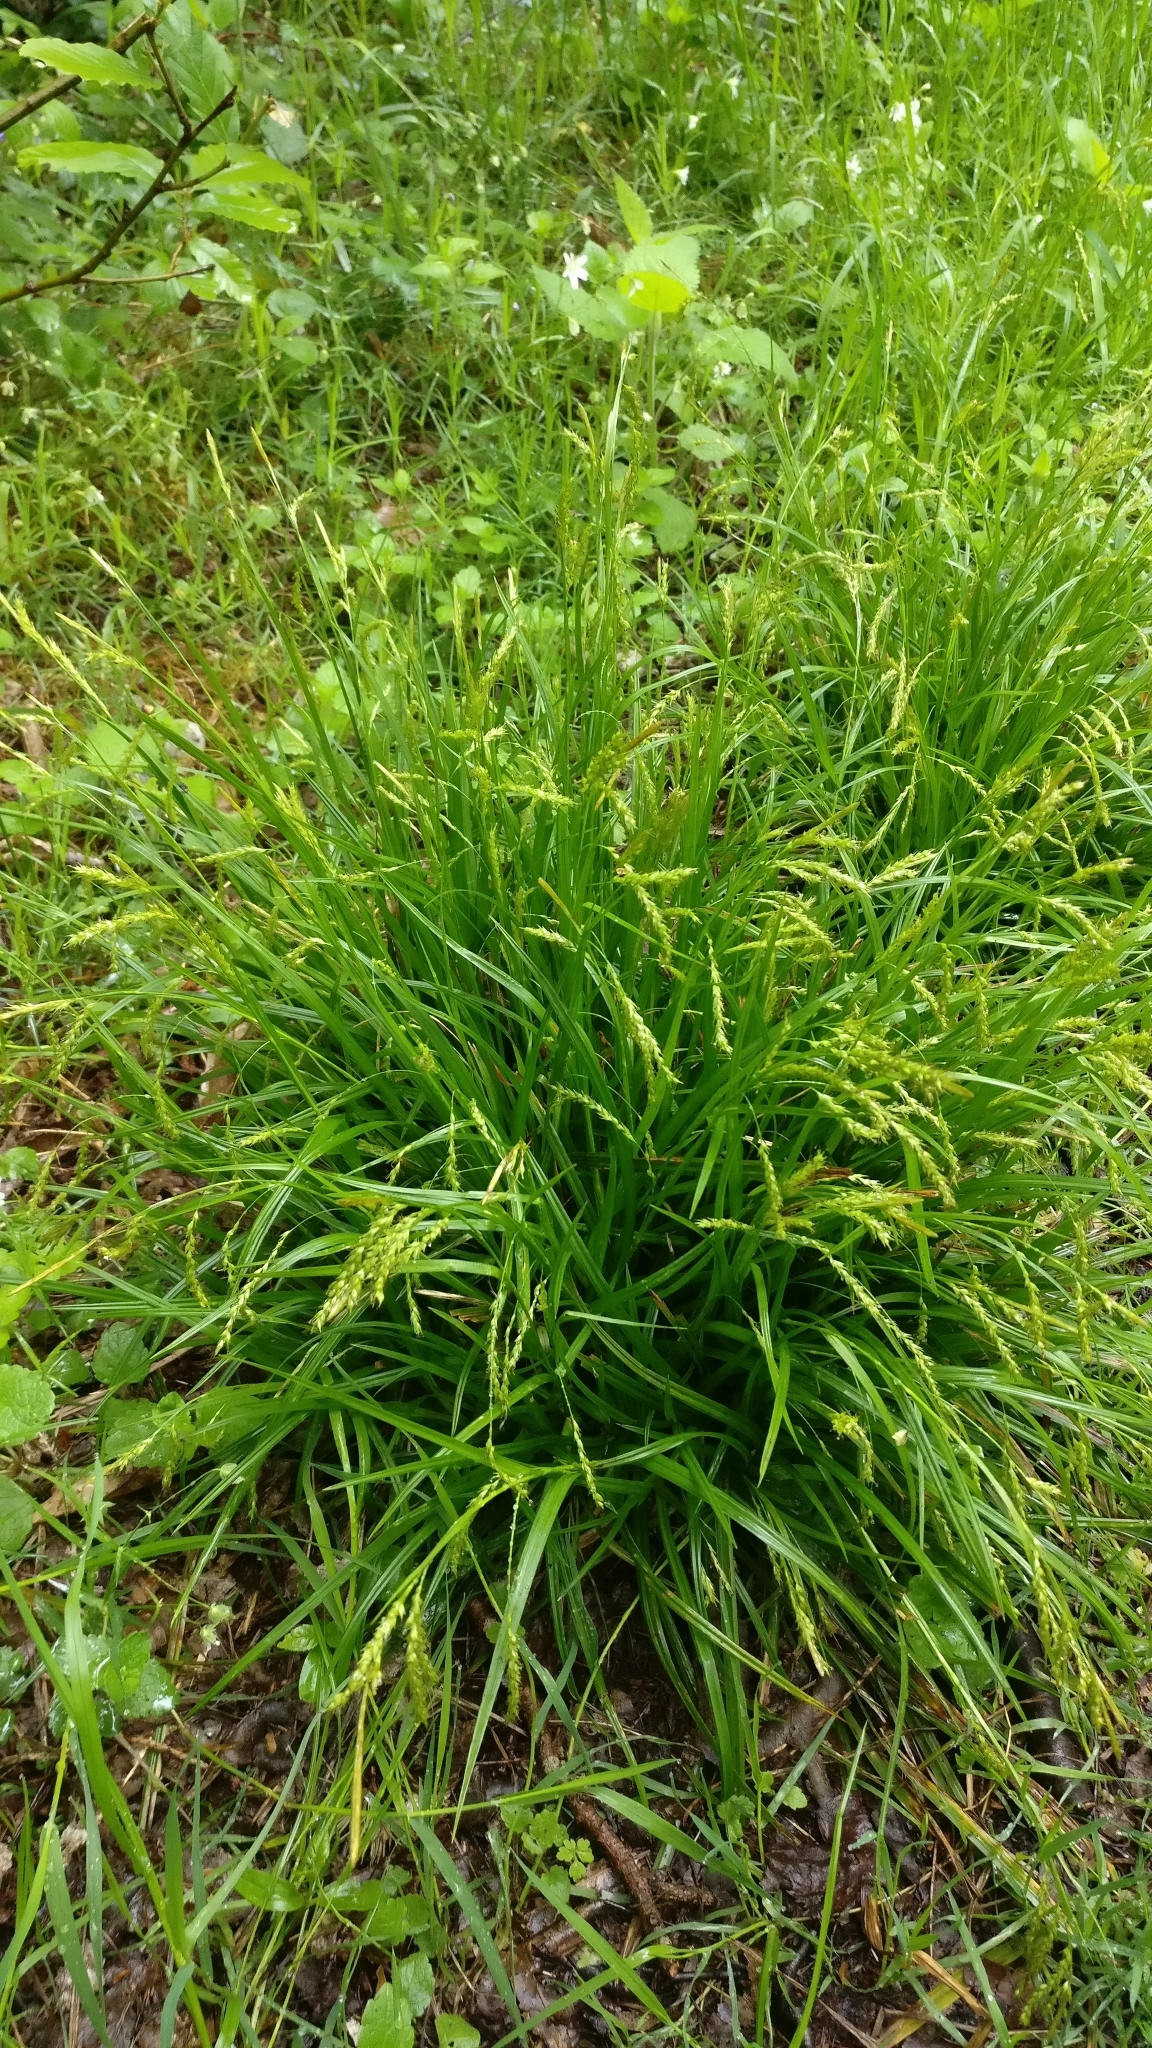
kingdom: Plantae
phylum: Tracheophyta
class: Liliopsida
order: Poales
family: Cyperaceae
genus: Carex
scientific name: Carex sylvatica
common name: Wood-sedge
